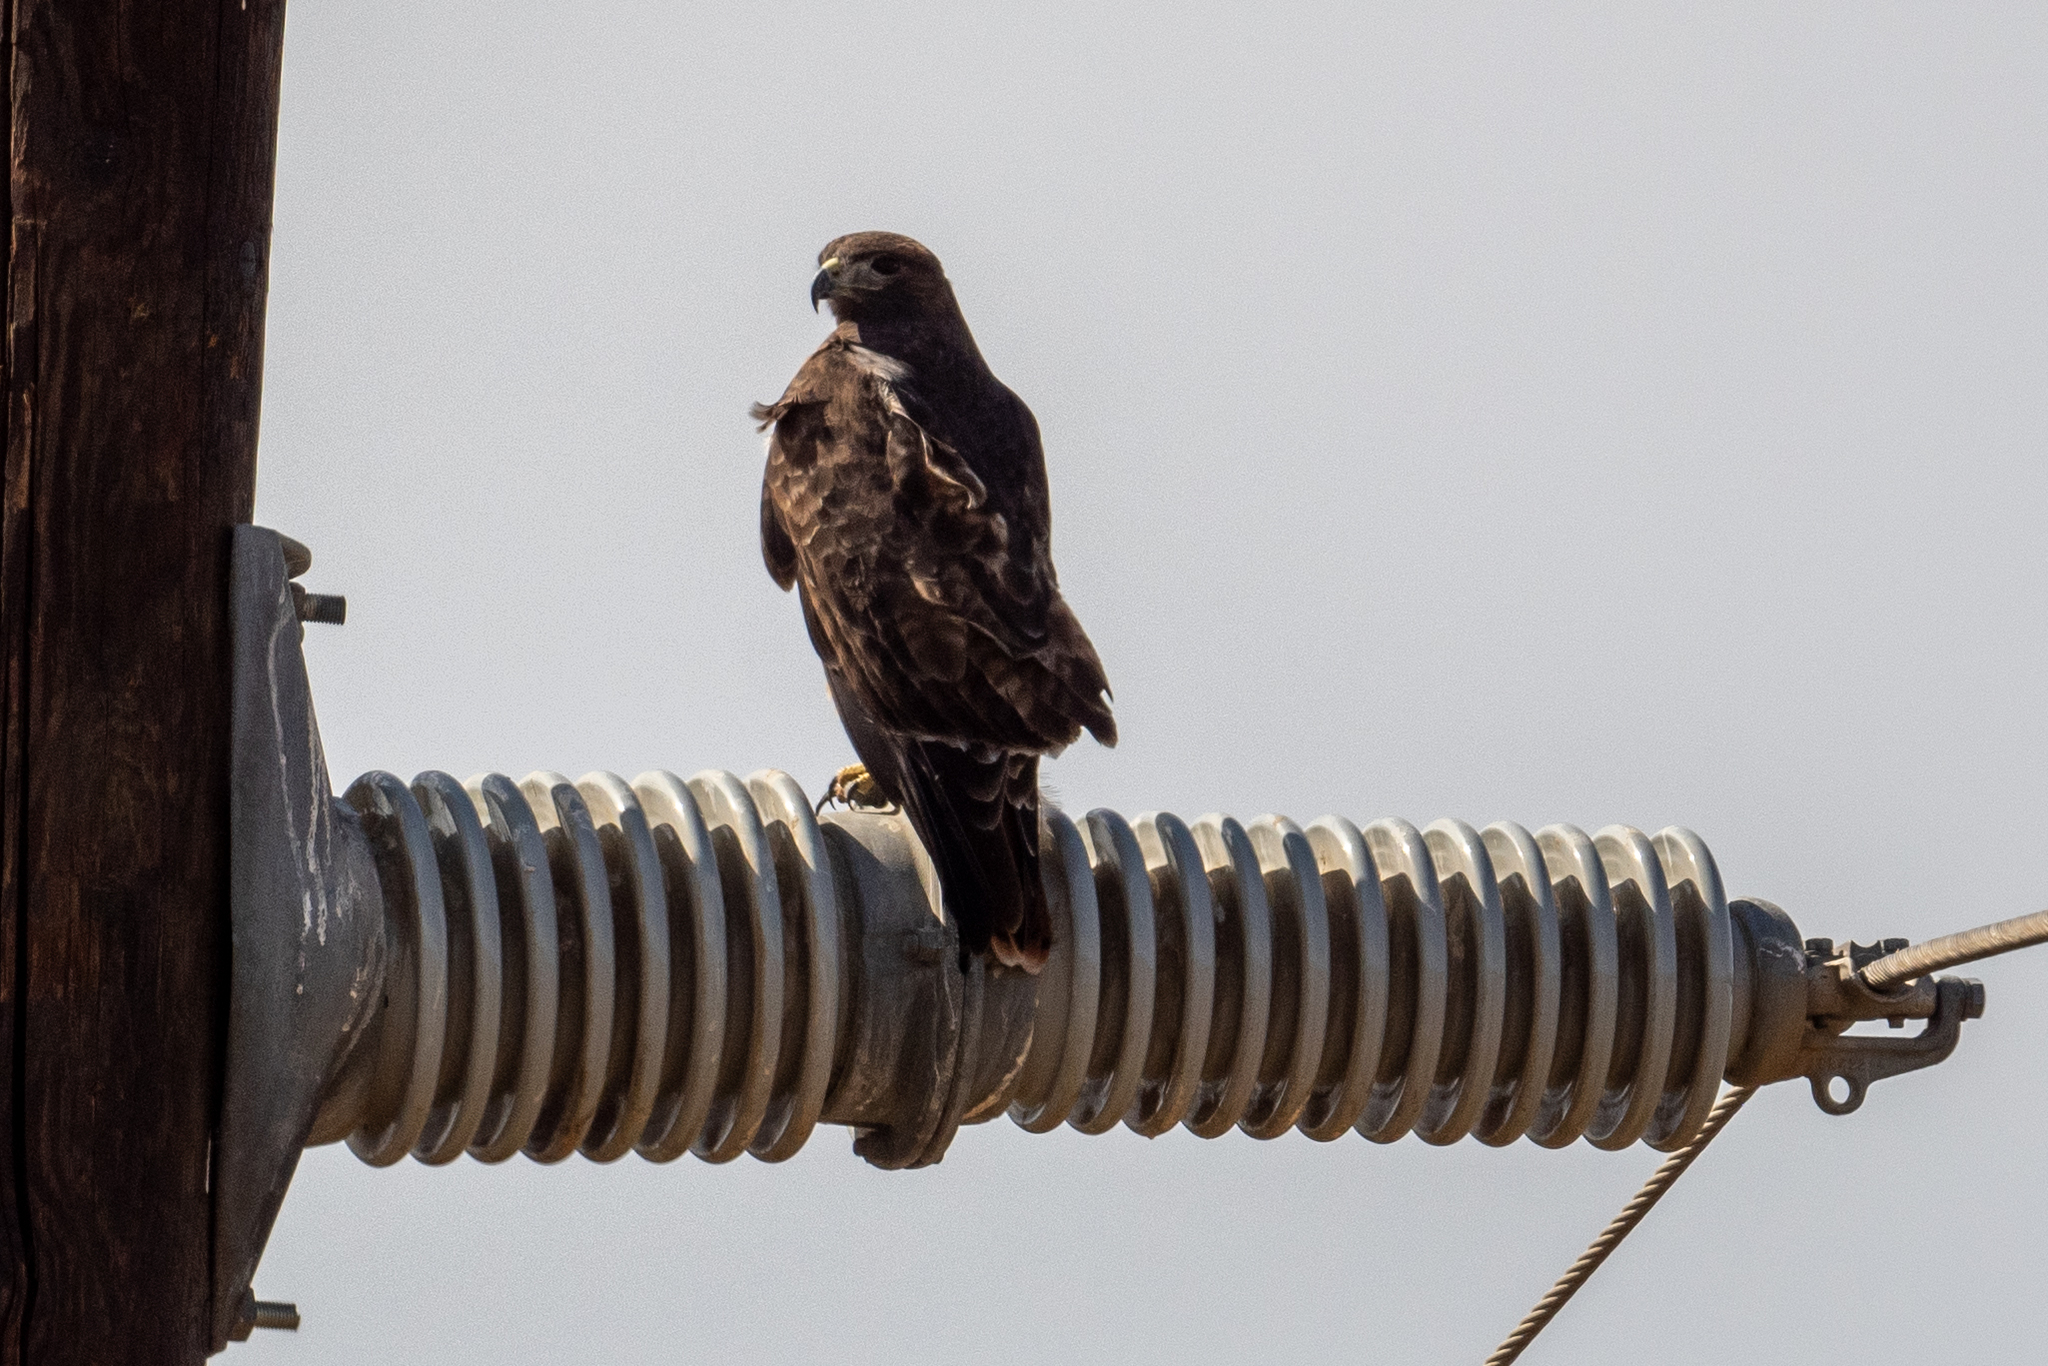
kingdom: Animalia
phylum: Chordata
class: Aves
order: Accipitriformes
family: Accipitridae
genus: Buteo
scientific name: Buteo jamaicensis
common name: Red-tailed hawk
